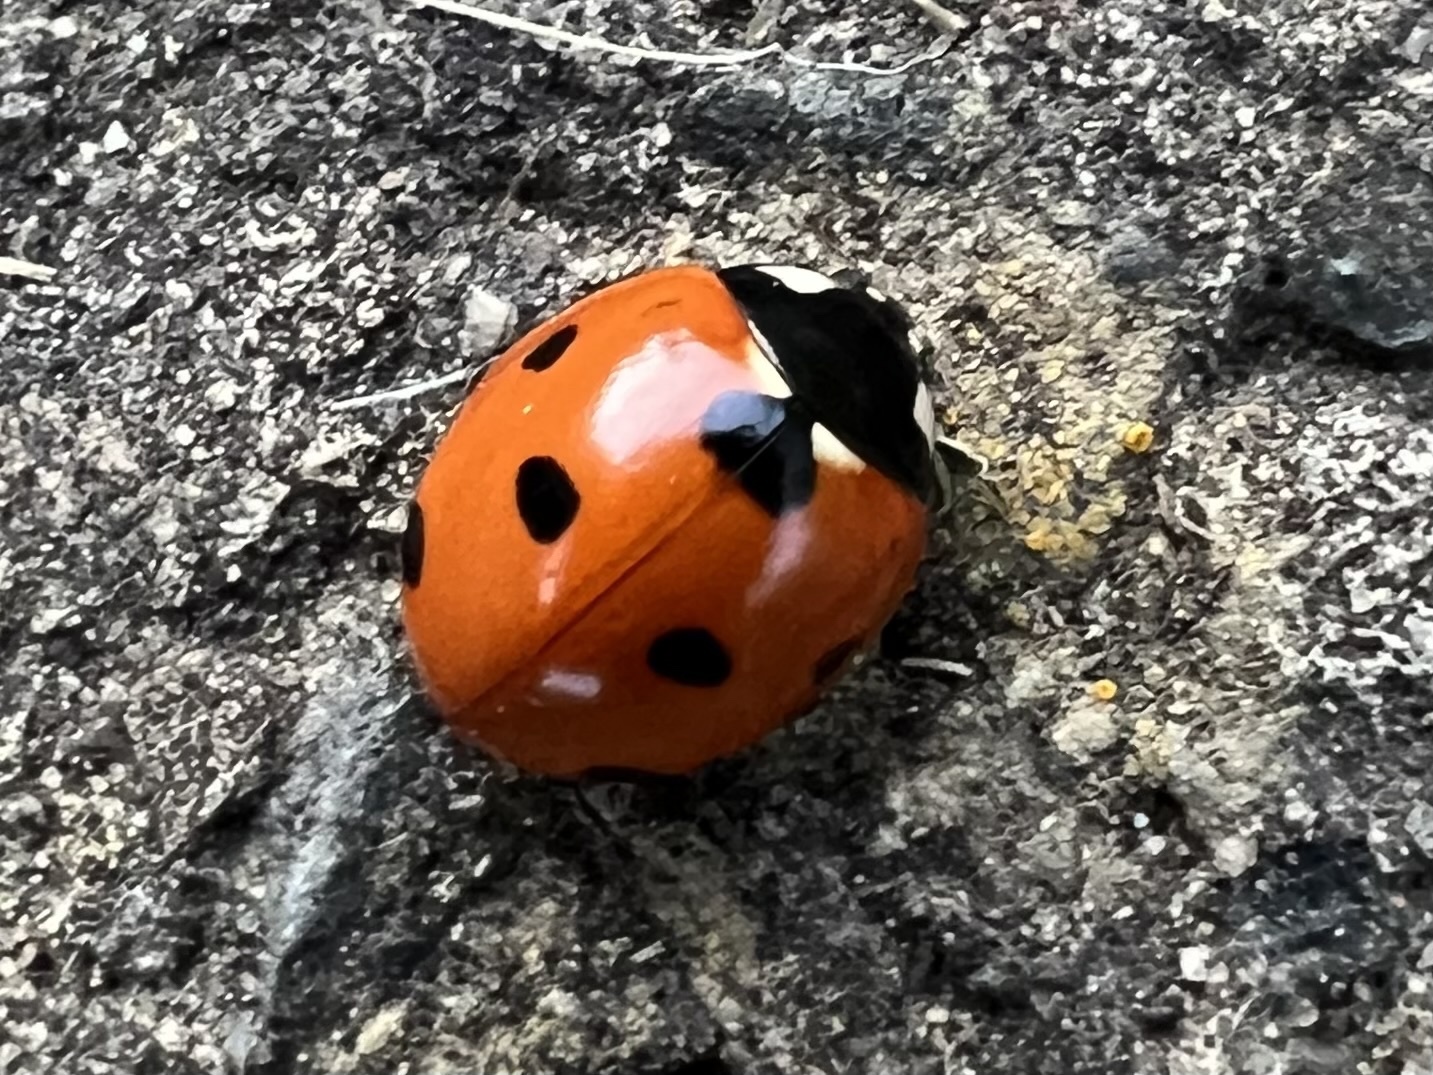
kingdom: Animalia
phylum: Arthropoda
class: Insecta
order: Coleoptera
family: Coccinellidae
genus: Coccinella
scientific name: Coccinella septempunctata
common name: Sevenspotted lady beetle
